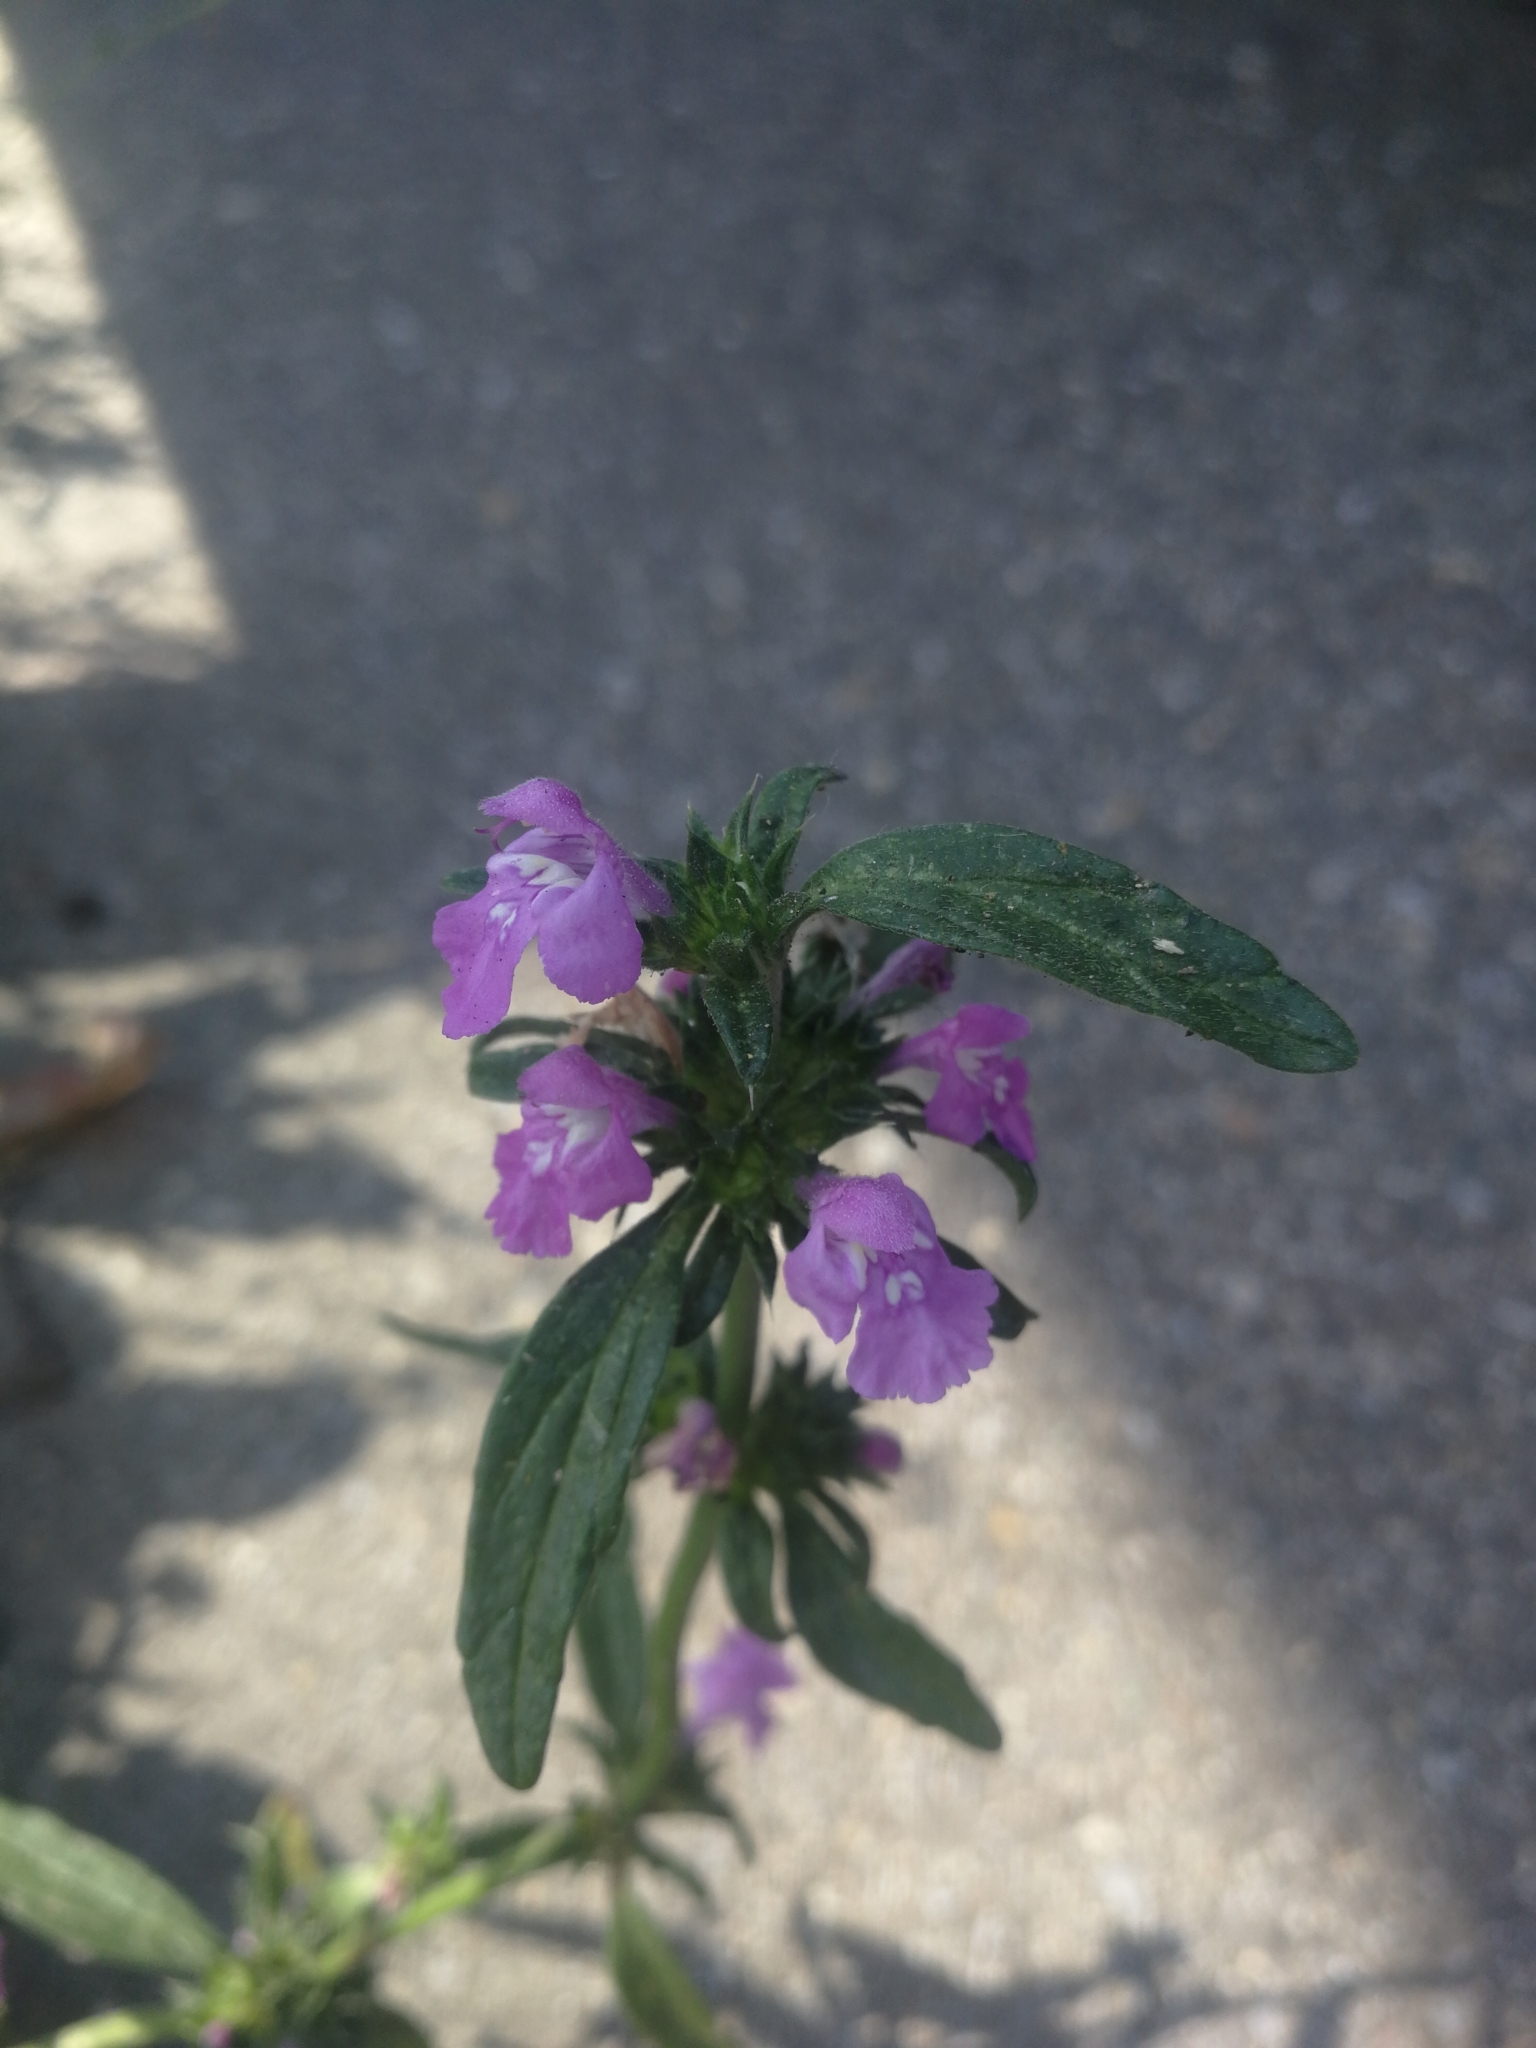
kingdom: Plantae
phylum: Tracheophyta
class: Magnoliopsida
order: Lamiales
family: Lamiaceae
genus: Galeopsis
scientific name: Galeopsis angustifolia
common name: Red hemp-nettle
